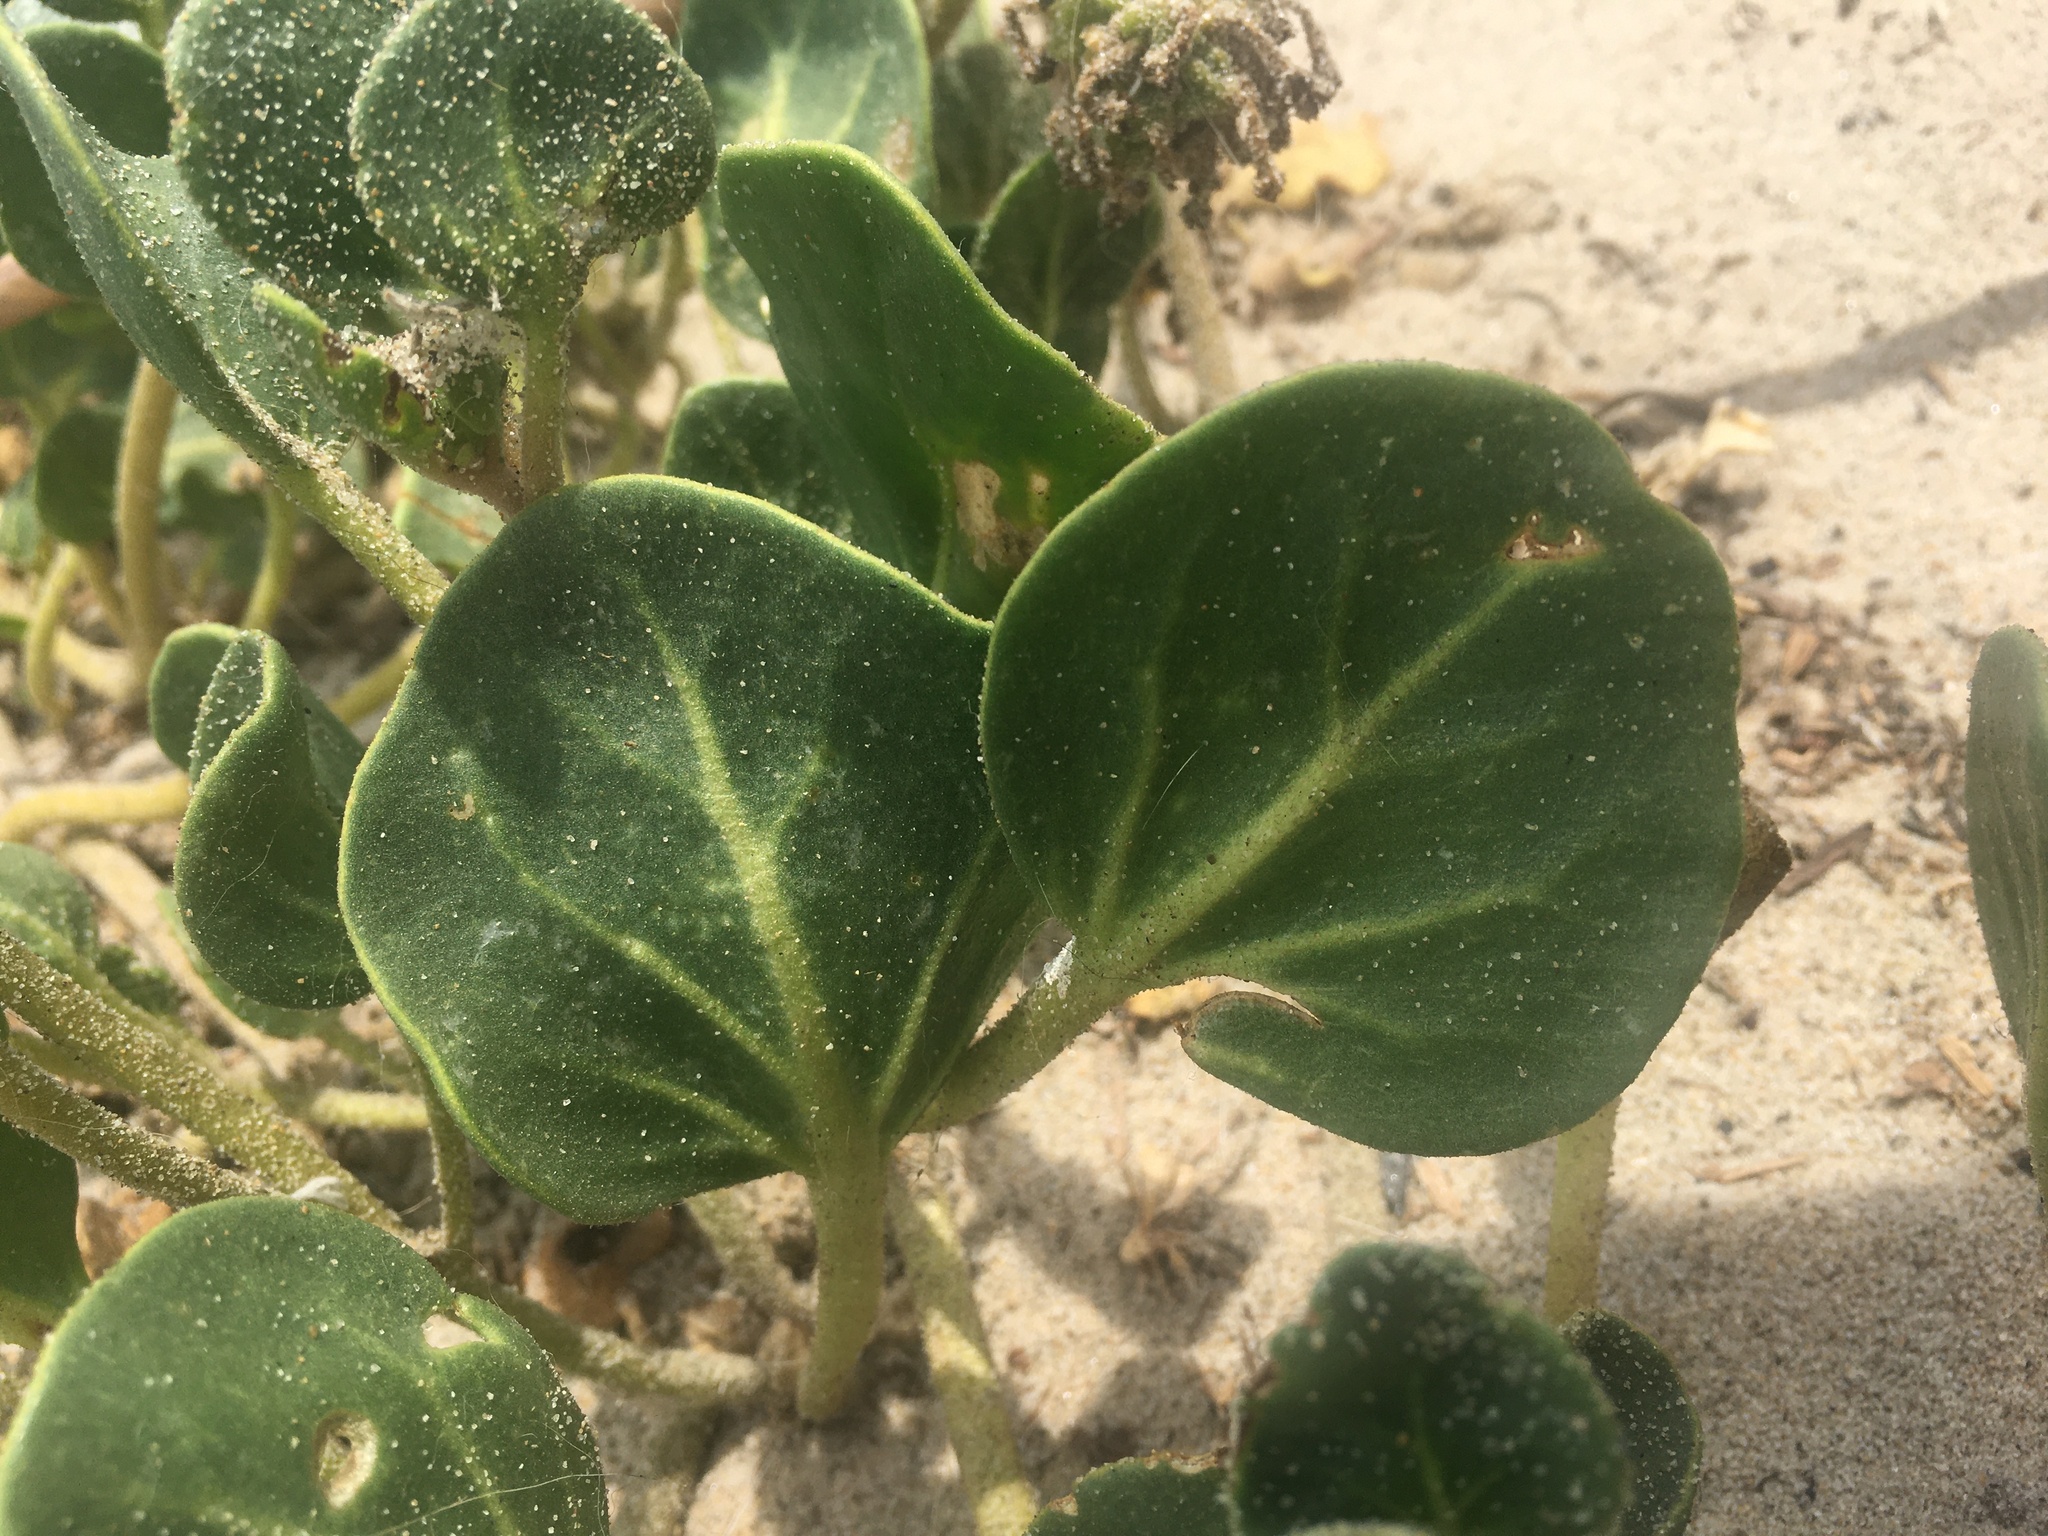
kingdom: Plantae
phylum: Tracheophyta
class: Magnoliopsida
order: Caryophyllales
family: Nyctaginaceae
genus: Abronia
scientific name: Abronia latifolia
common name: Yellow sand-verbena
